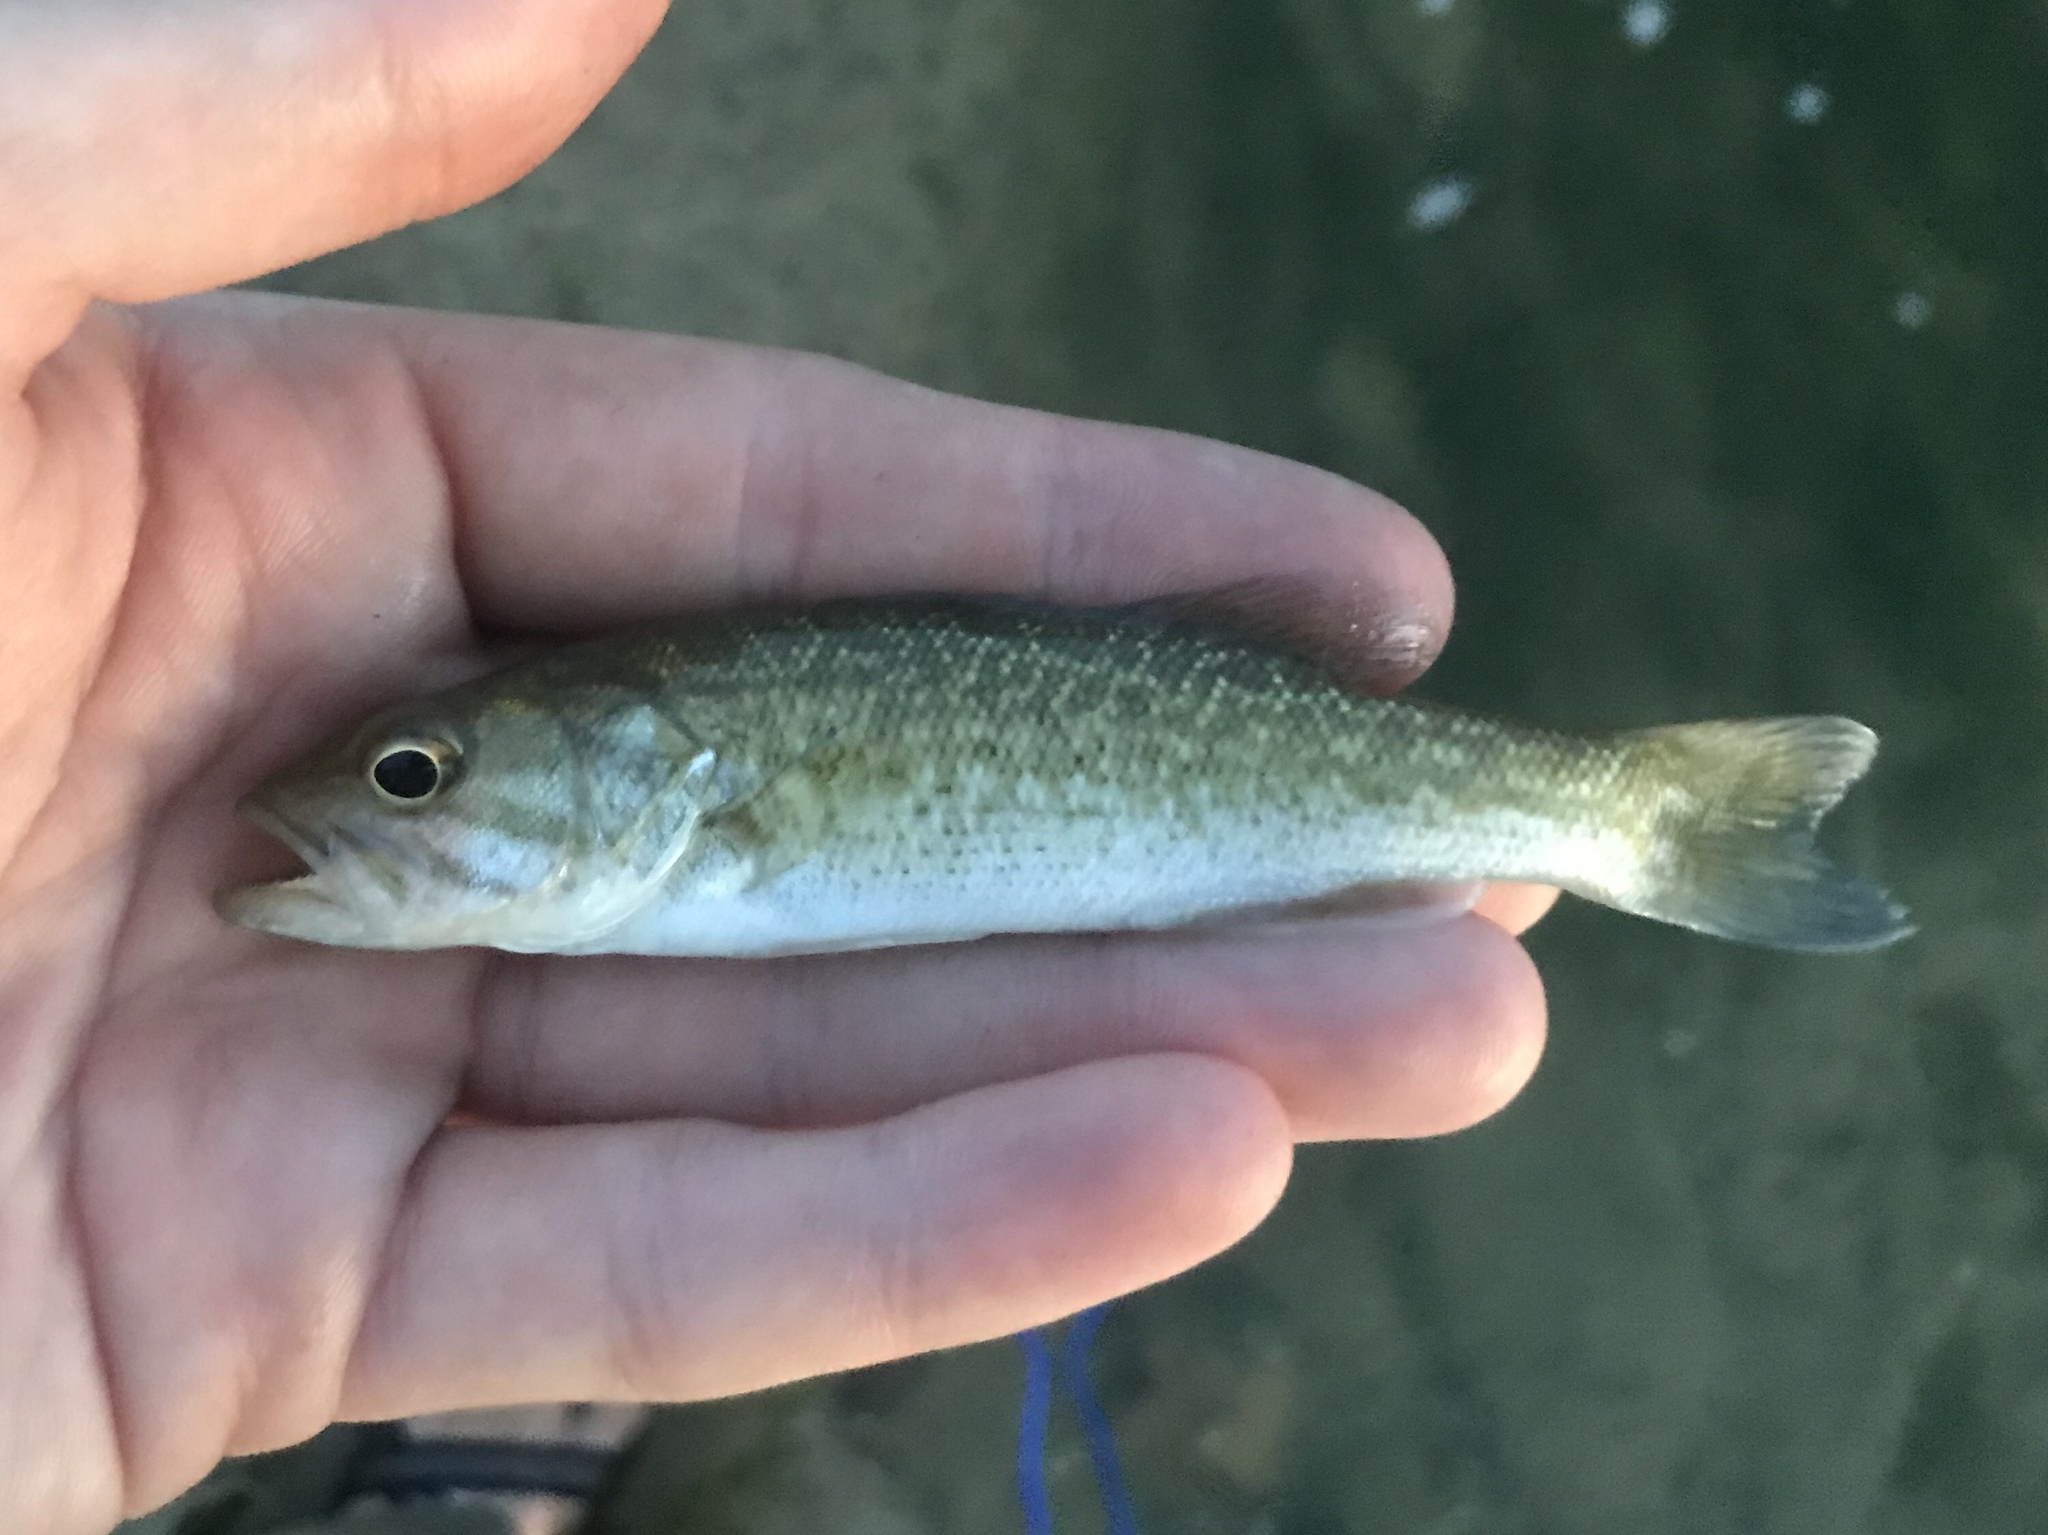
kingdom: Animalia
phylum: Chordata
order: Perciformes
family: Centrarchidae
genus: Micropterus
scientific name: Micropterus treculii
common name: Guadalupe bass
